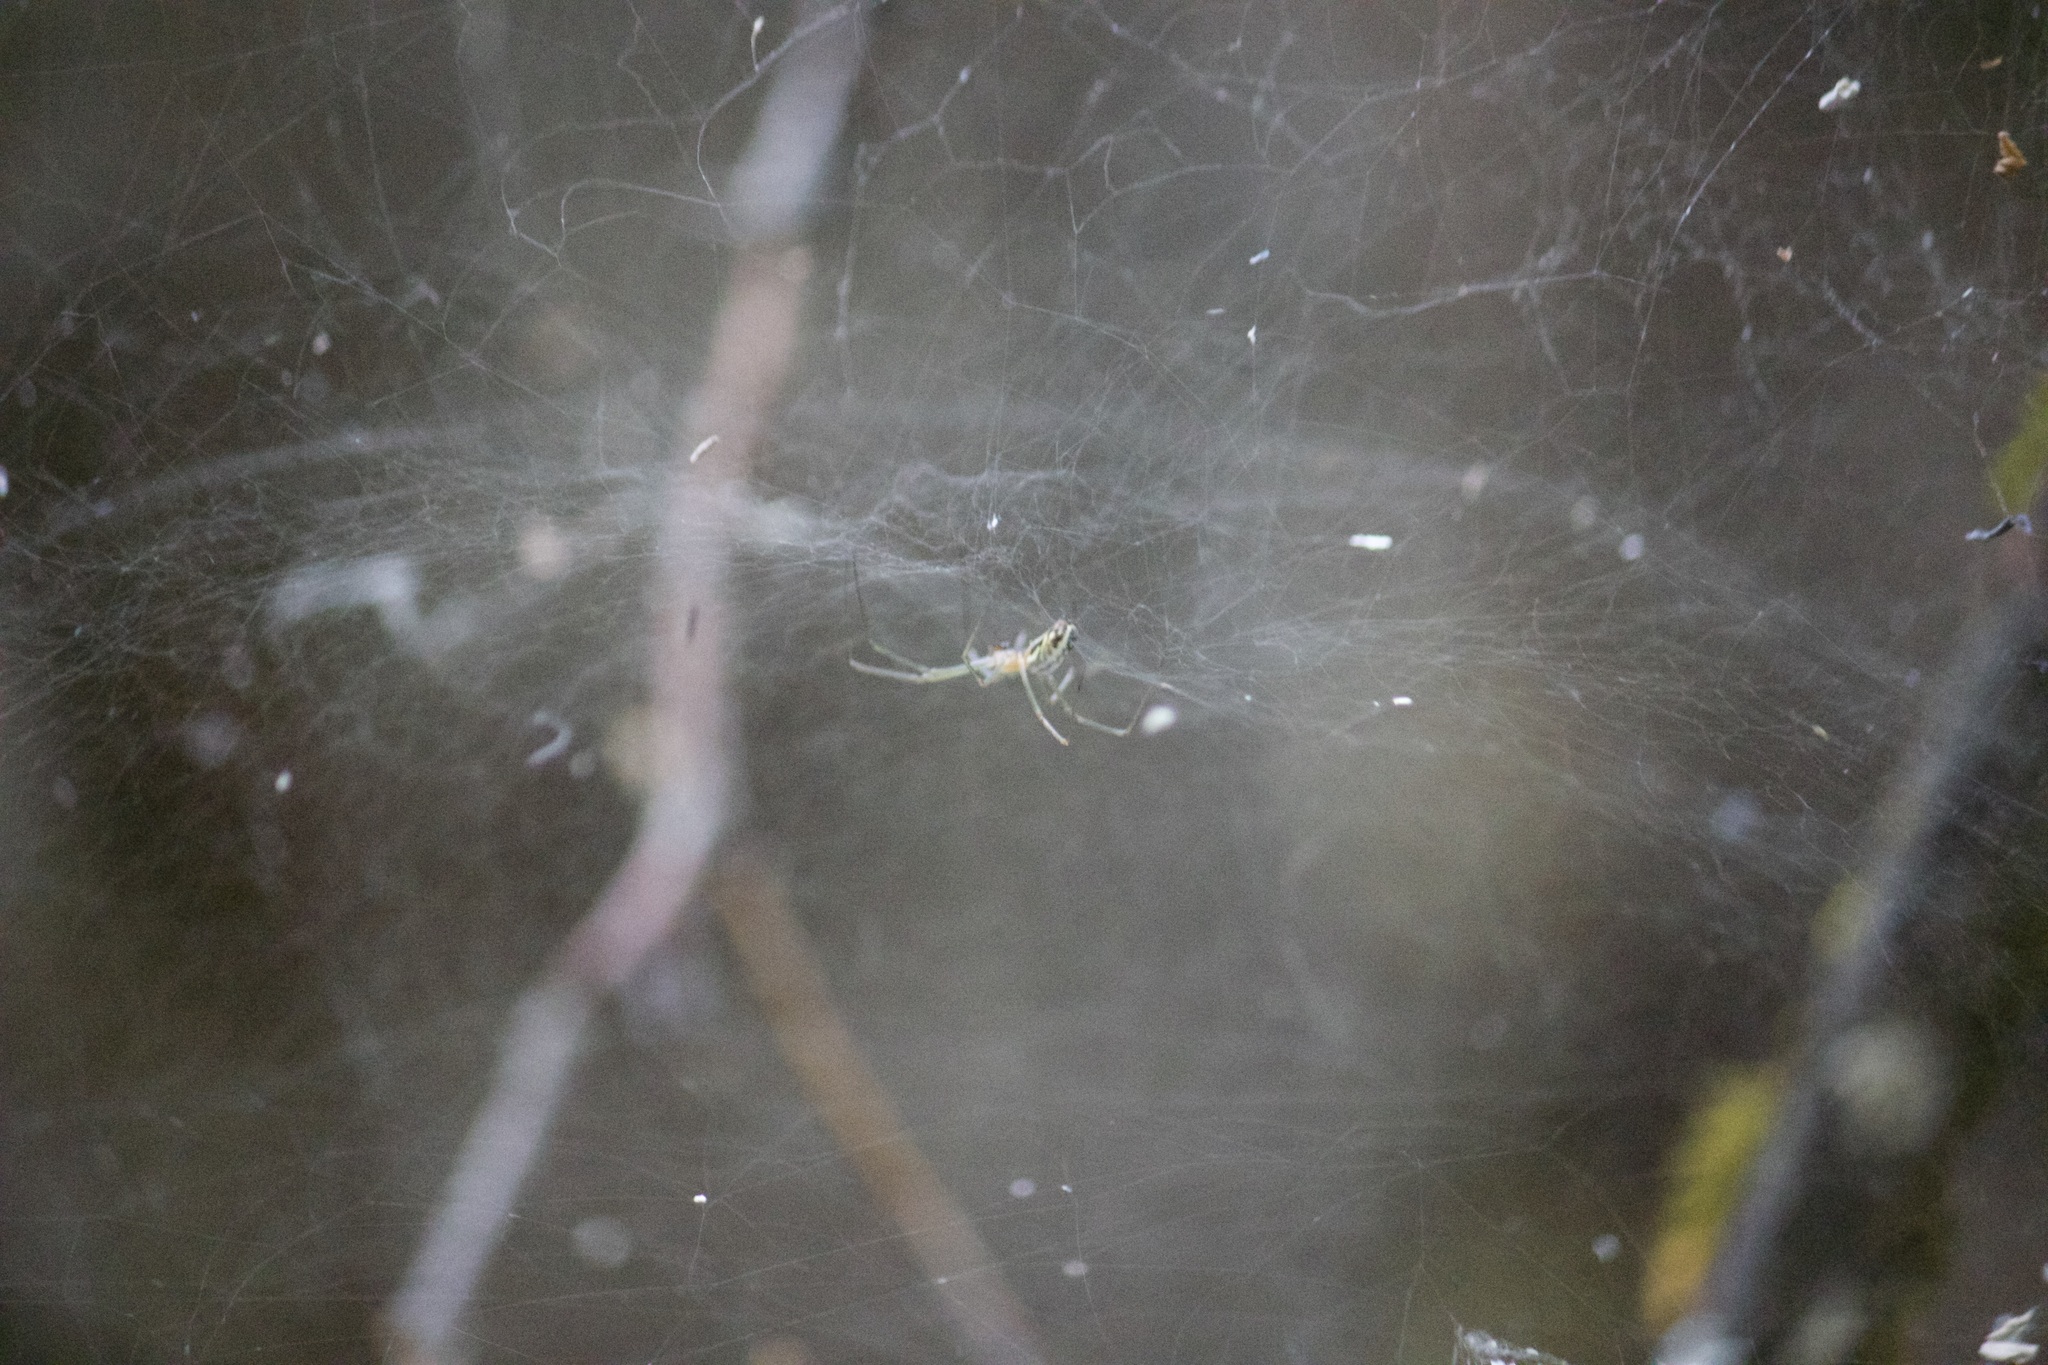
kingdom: Animalia
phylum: Arthropoda
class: Arachnida
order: Araneae
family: Linyphiidae
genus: Neriene
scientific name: Neriene litigiosa
